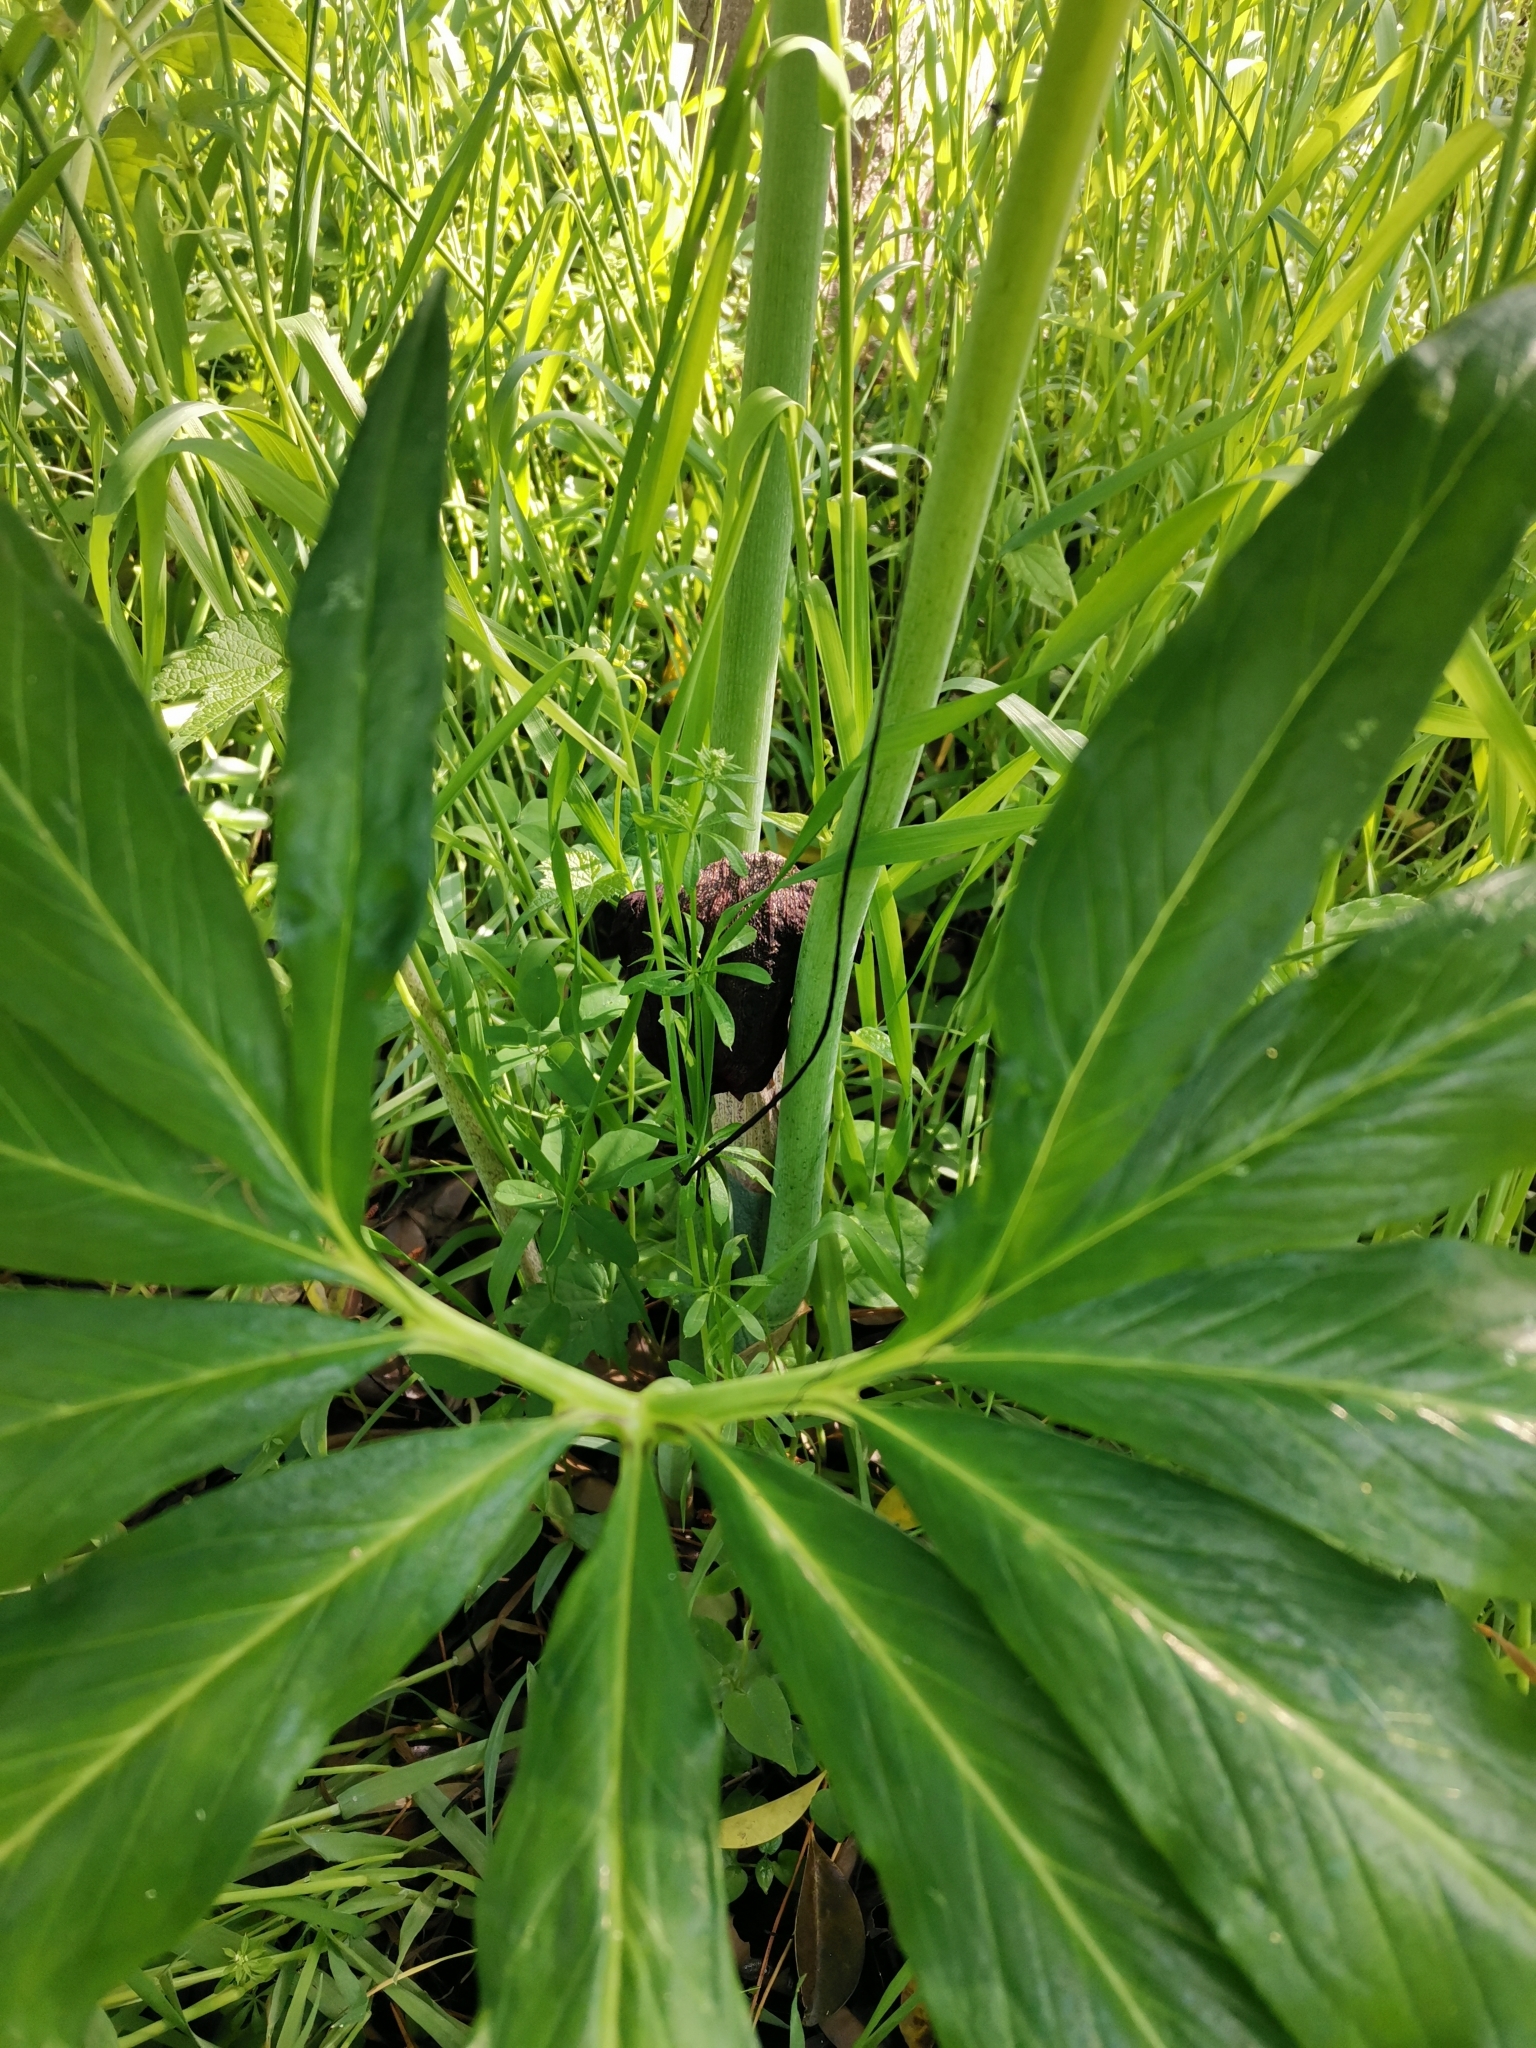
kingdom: Plantae
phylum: Tracheophyta
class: Liliopsida
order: Alismatales
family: Araceae
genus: Arisaema
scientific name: Arisaema thunbergii
